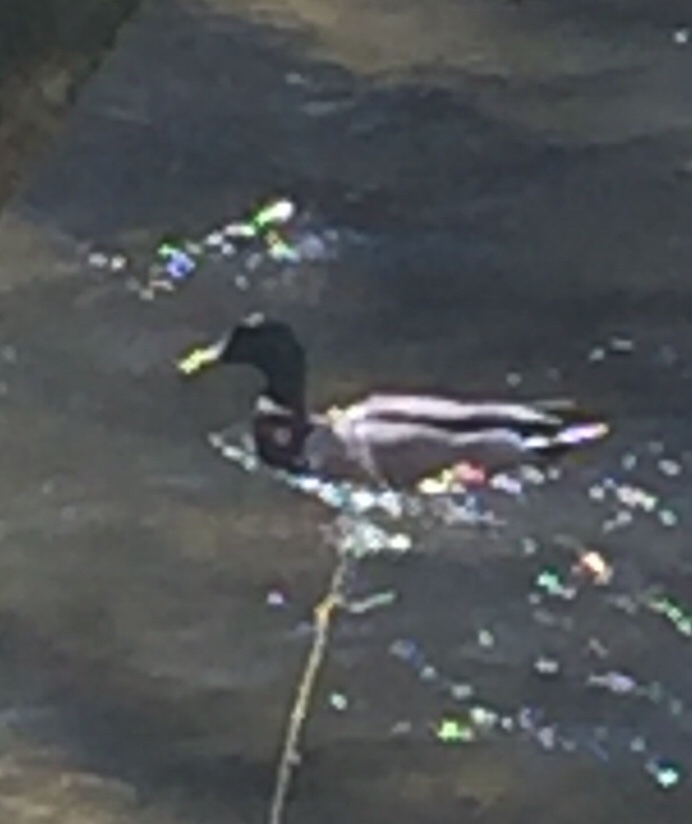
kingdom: Animalia
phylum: Chordata
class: Aves
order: Anseriformes
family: Anatidae
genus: Anas
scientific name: Anas platyrhynchos
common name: Mallard
